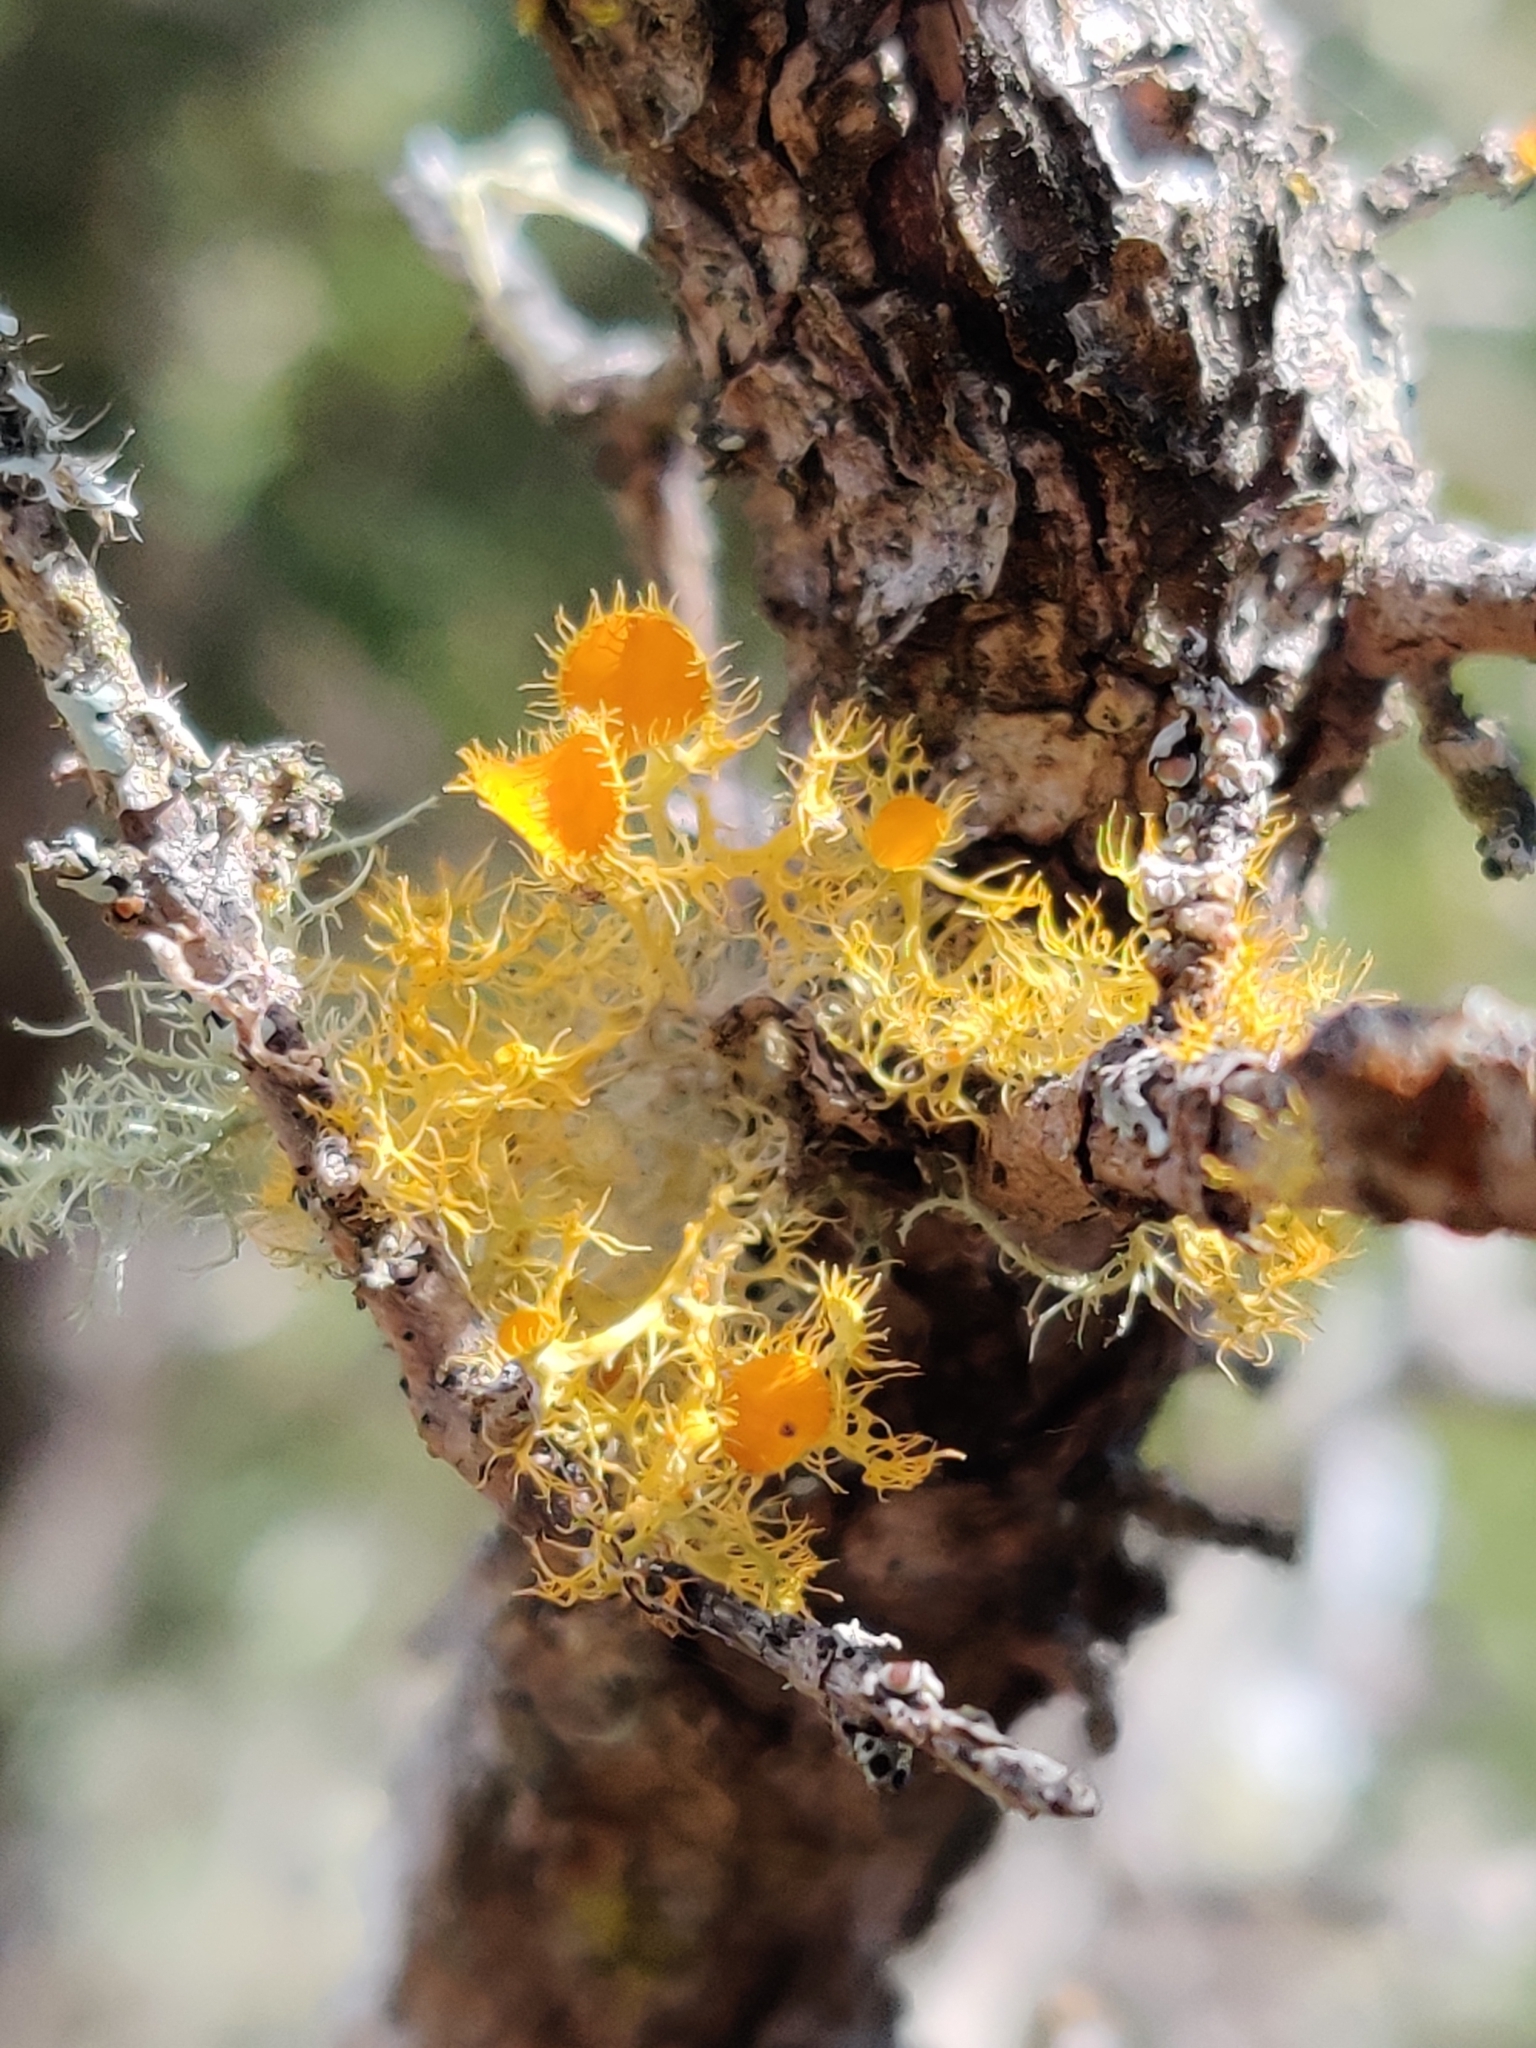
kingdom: Fungi
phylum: Ascomycota
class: Lecanoromycetes
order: Teloschistales
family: Teloschistaceae
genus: Niorma
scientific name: Niorma chrysophthalma
